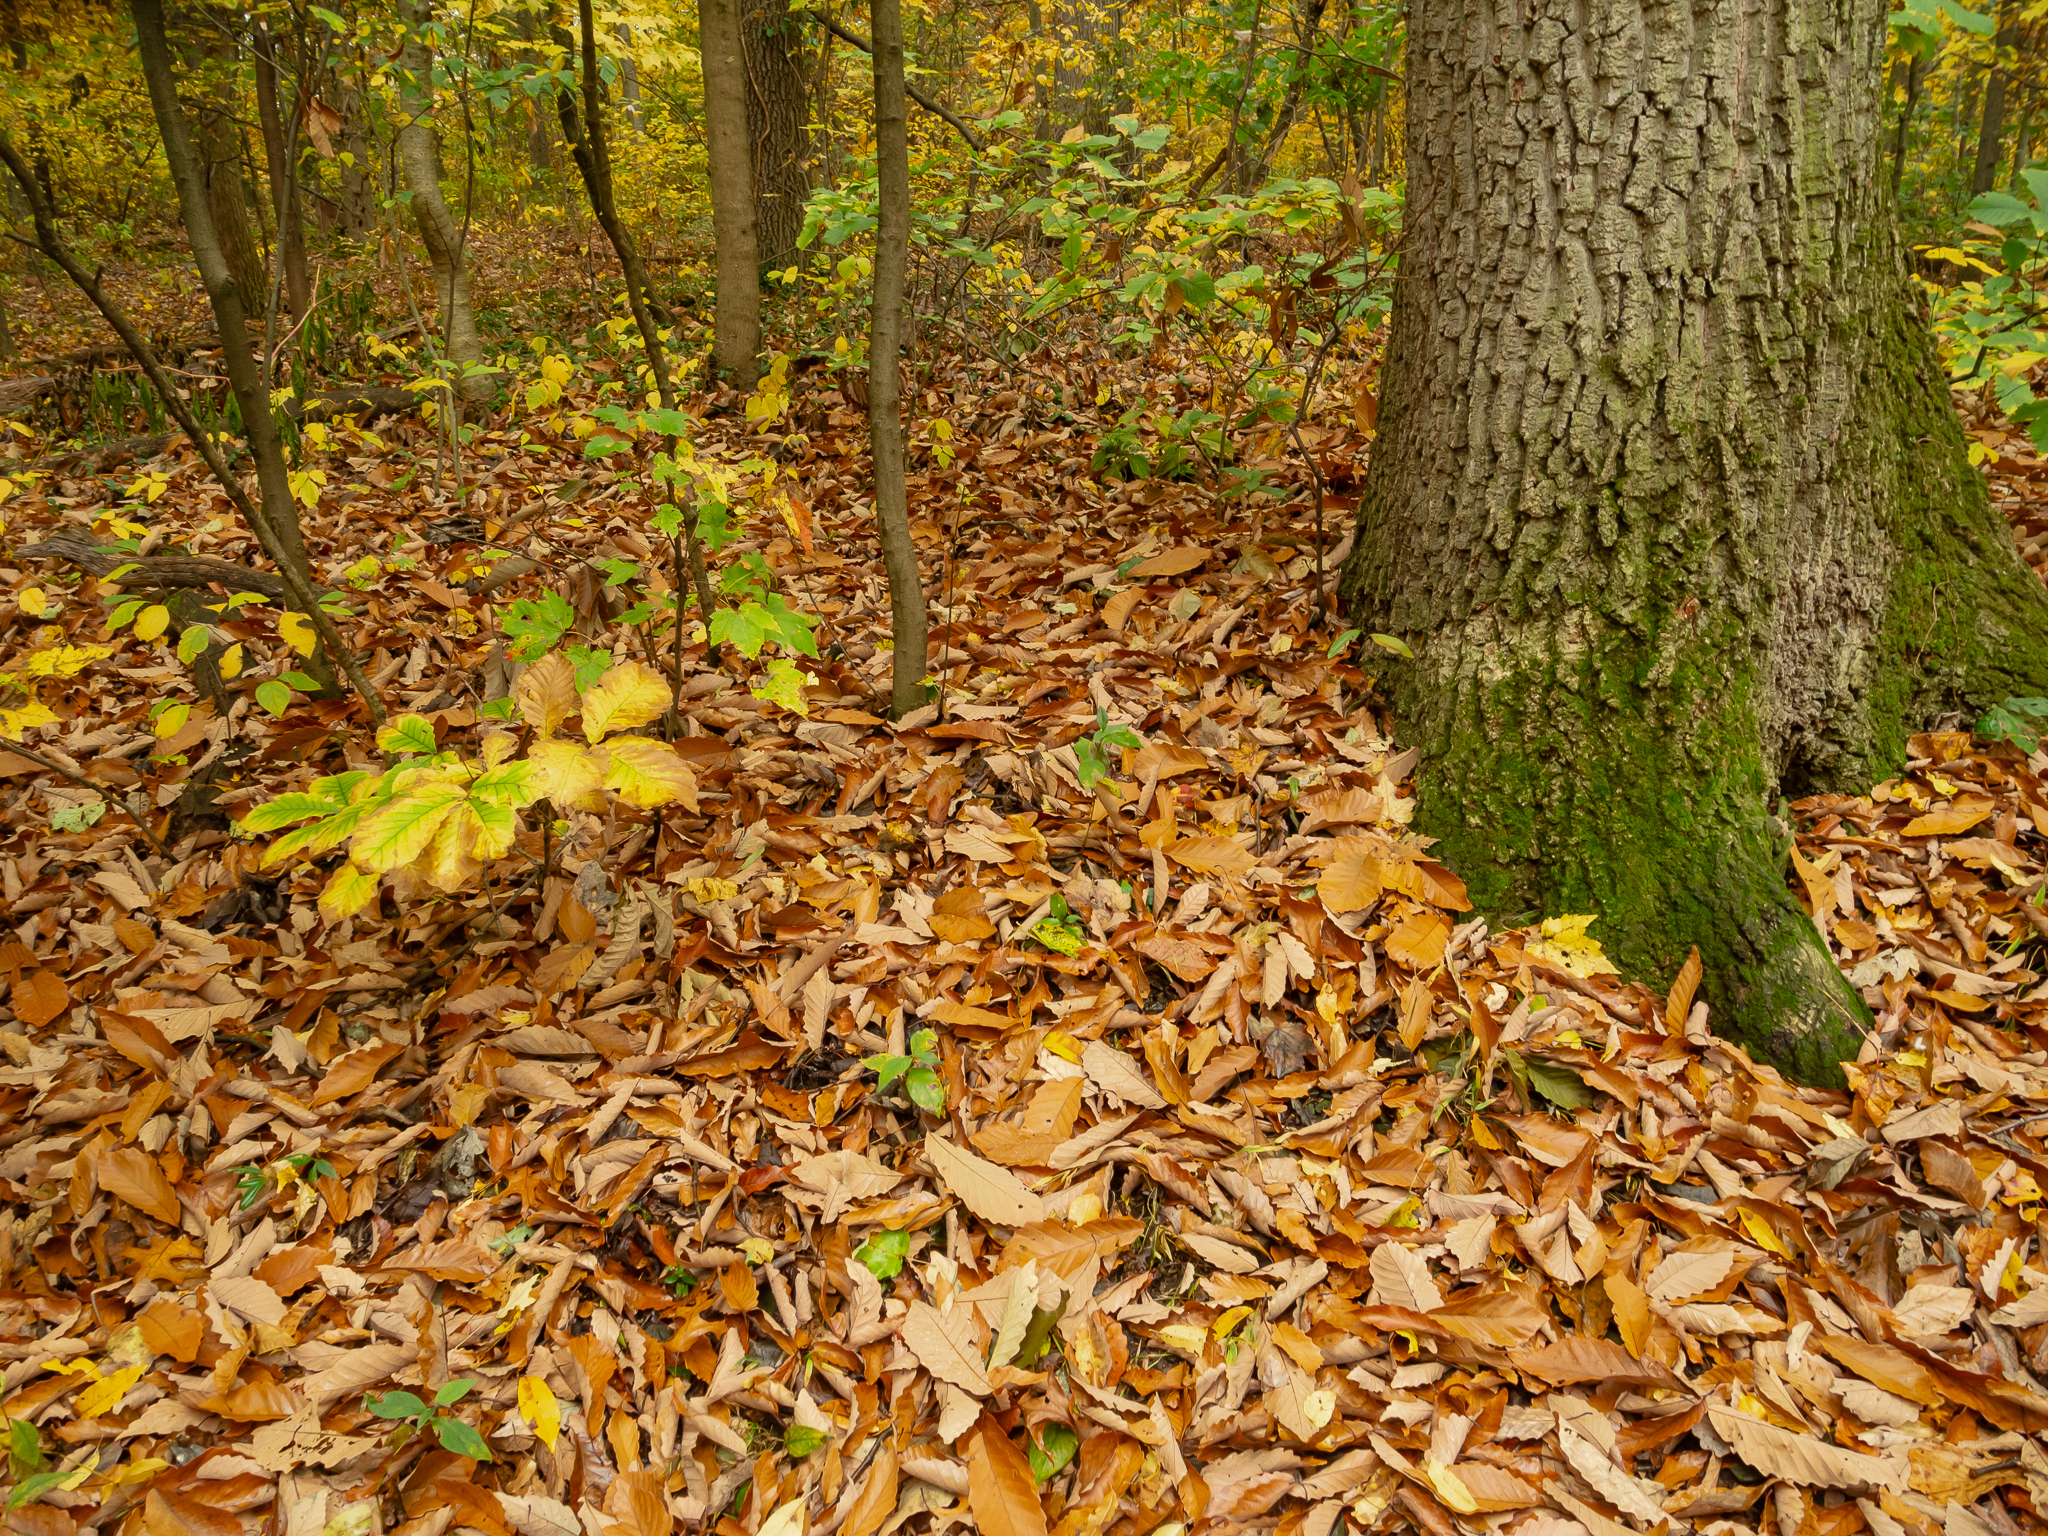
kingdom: Plantae
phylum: Tracheophyta
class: Magnoliopsida
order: Fagales
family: Fagaceae
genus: Quercus
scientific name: Quercus montana
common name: Chestnut oak
